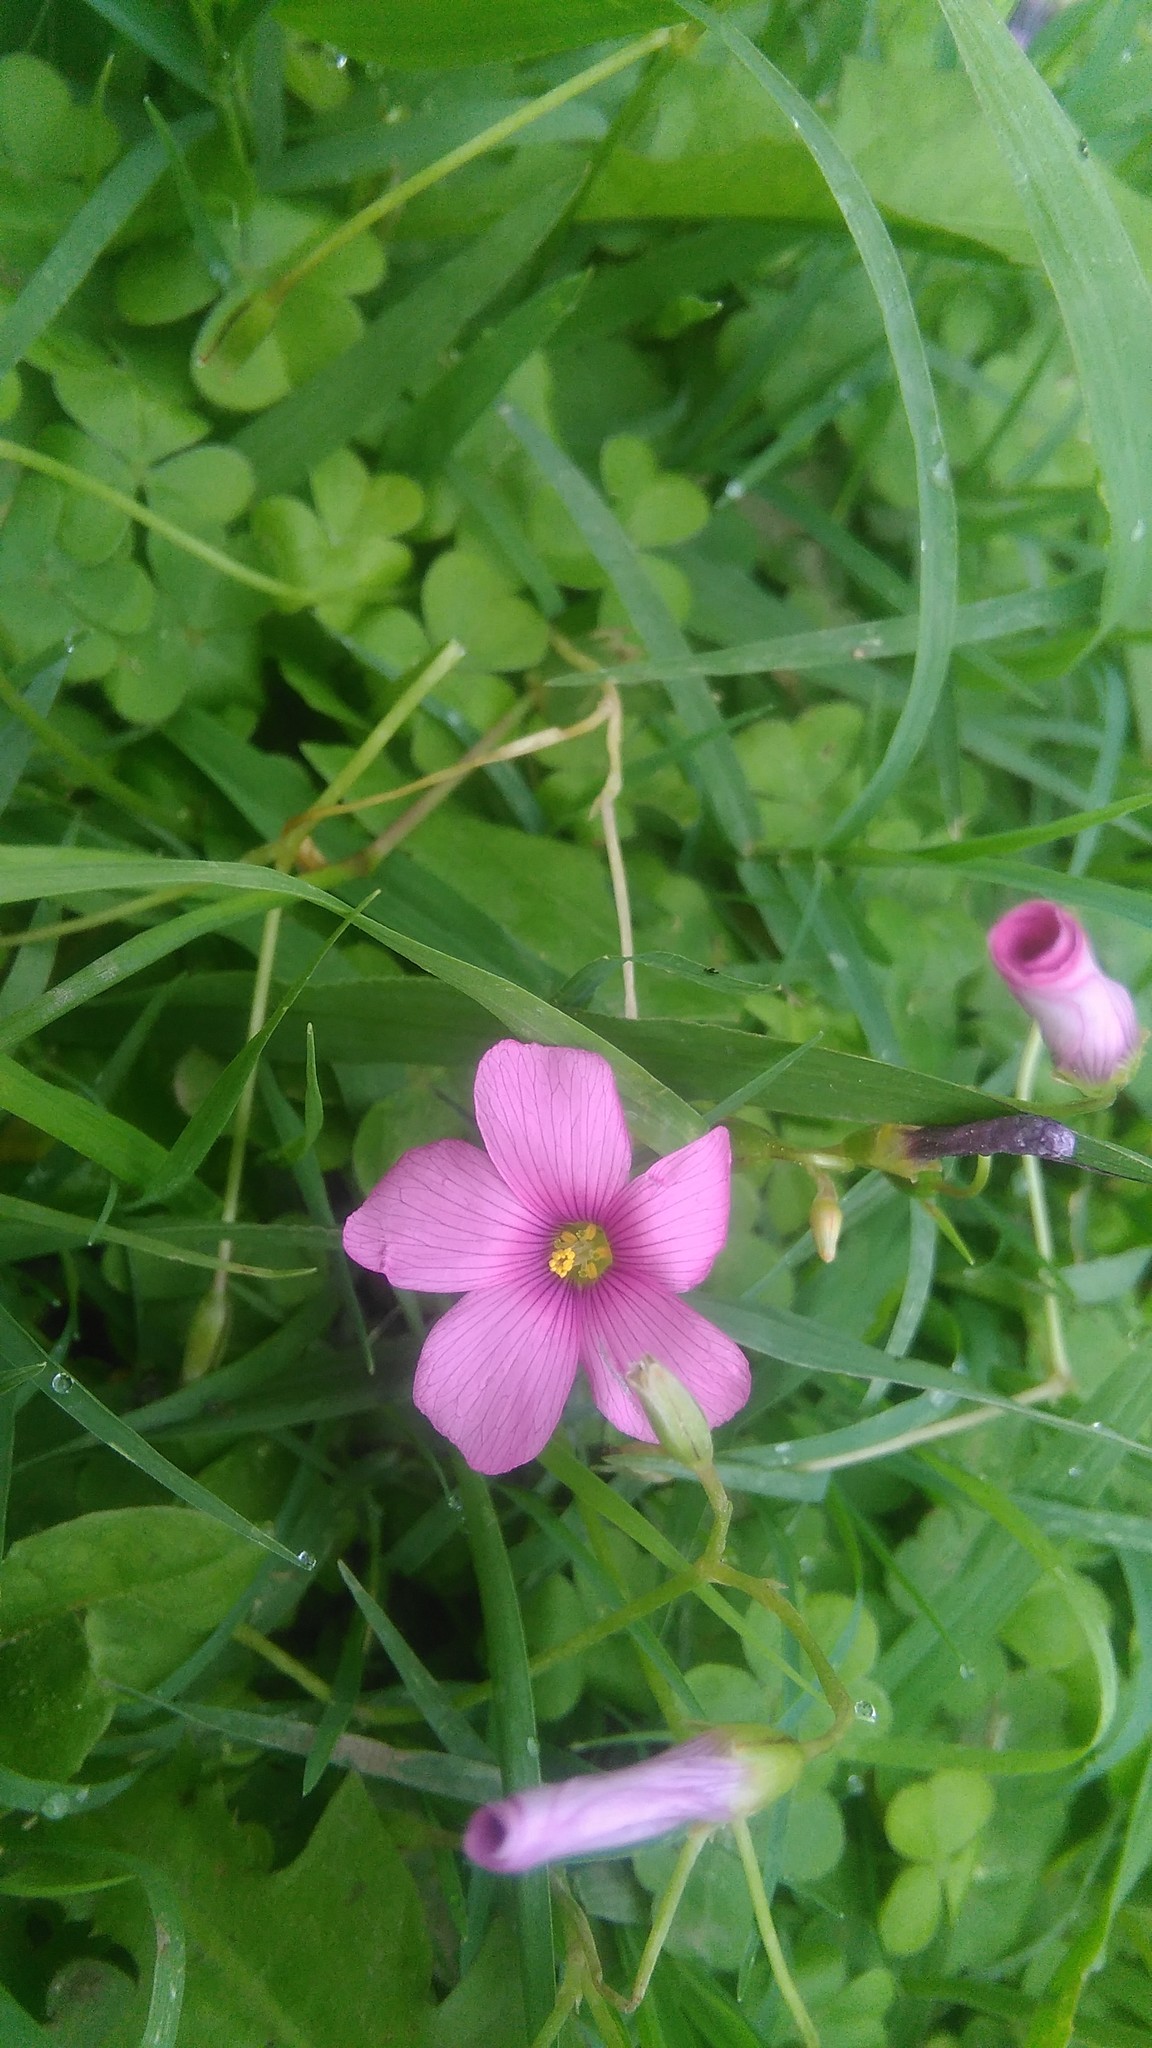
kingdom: Plantae
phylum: Tracheophyta
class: Magnoliopsida
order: Oxalidales
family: Oxalidaceae
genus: Oxalis
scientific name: Oxalis hispidula
